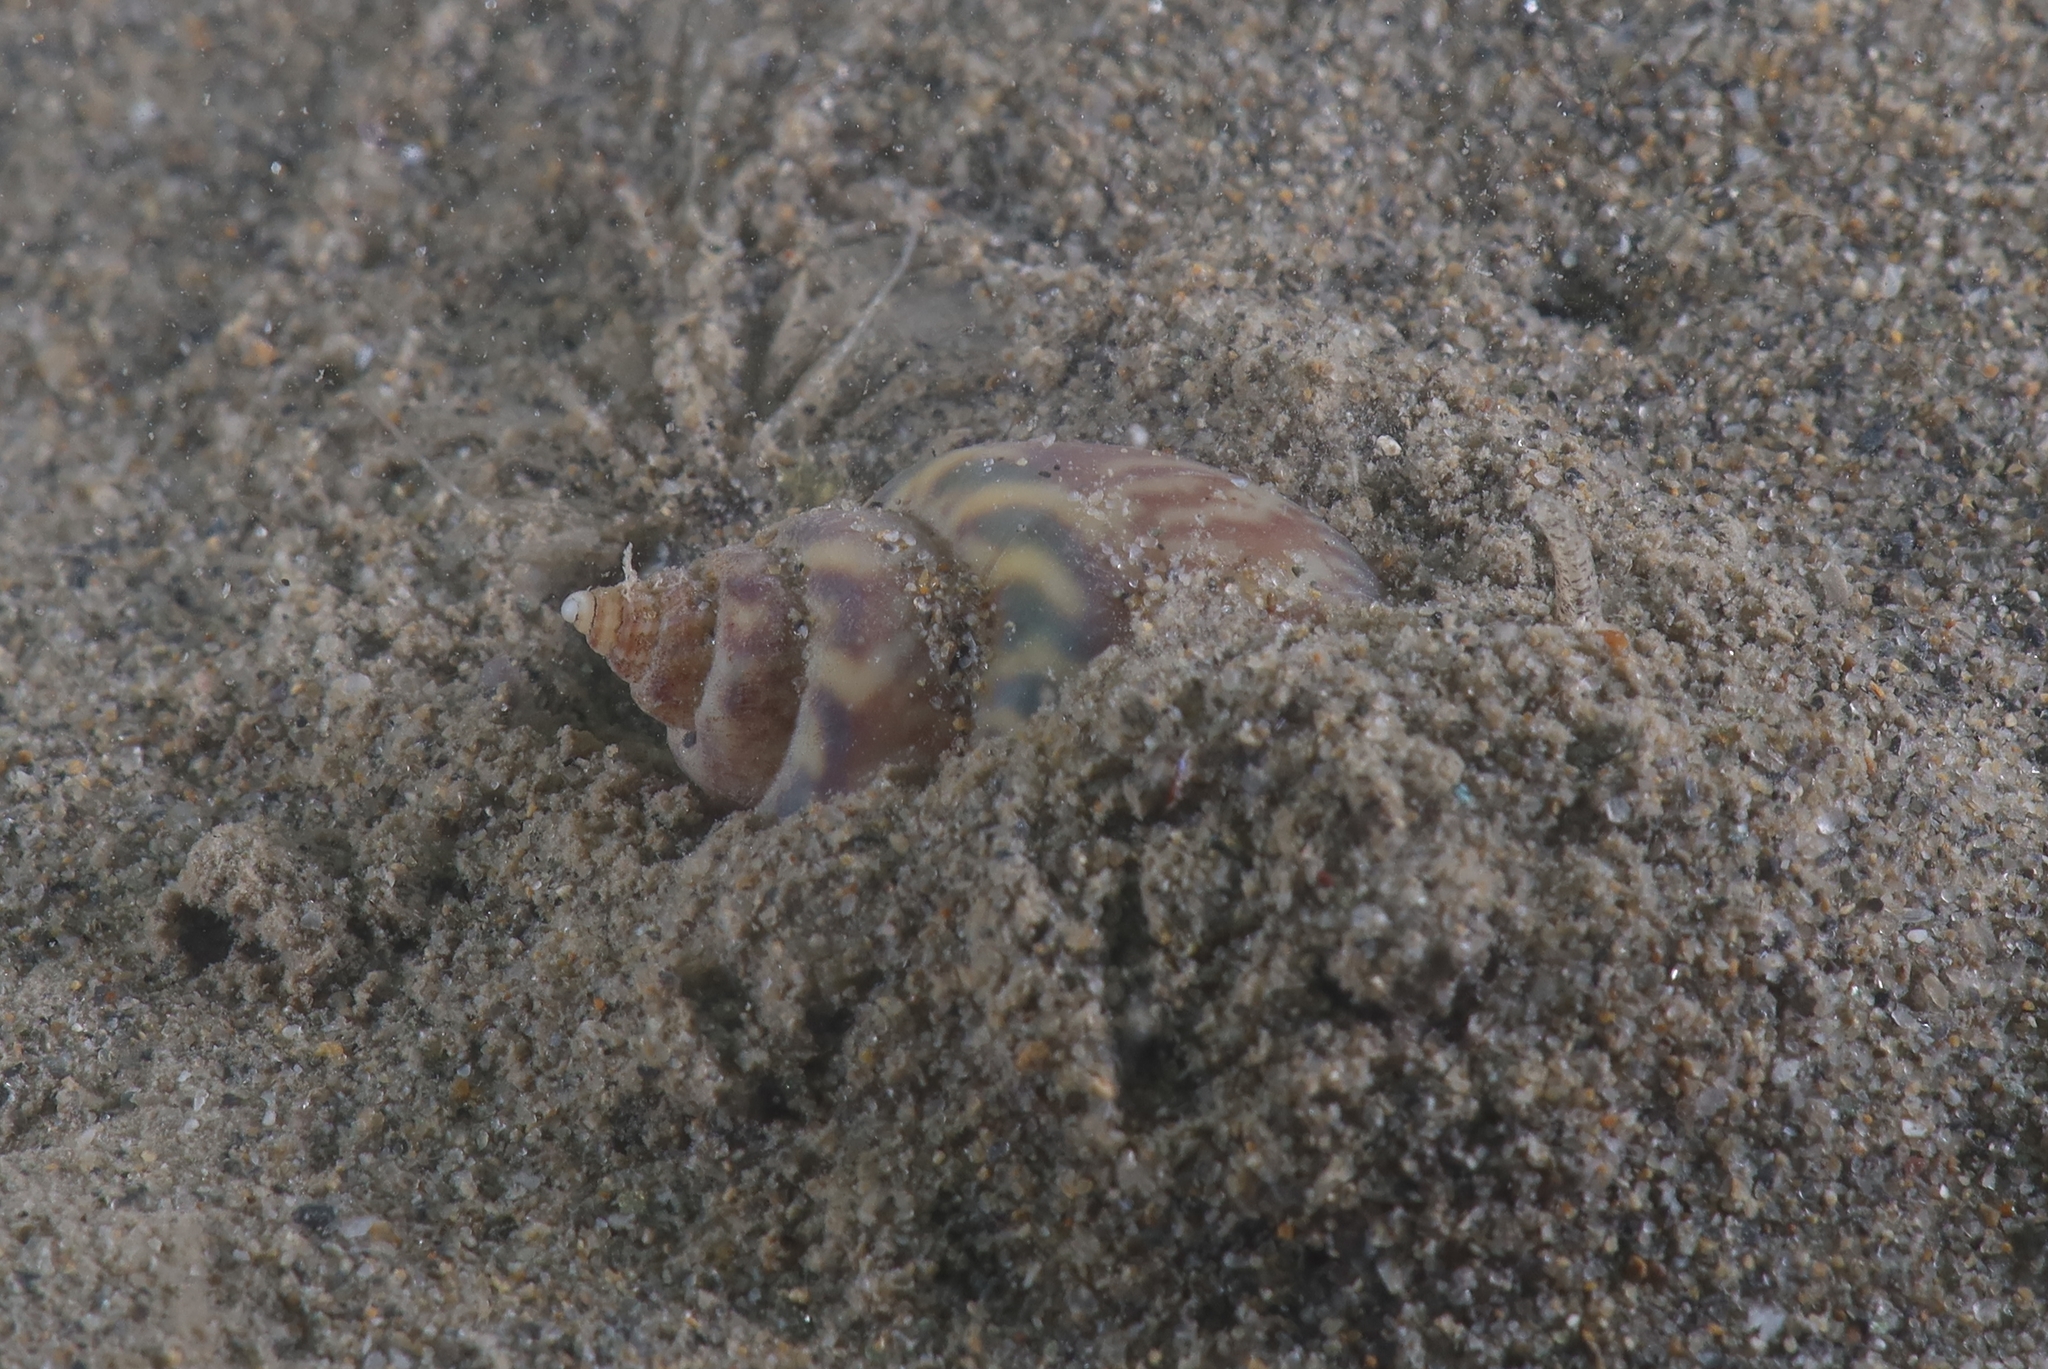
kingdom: Animalia
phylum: Mollusca
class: Gastropoda
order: Neogastropoda
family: Nassariidae
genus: Tritia
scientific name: Tritia mutabilis
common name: Mutable nassa
